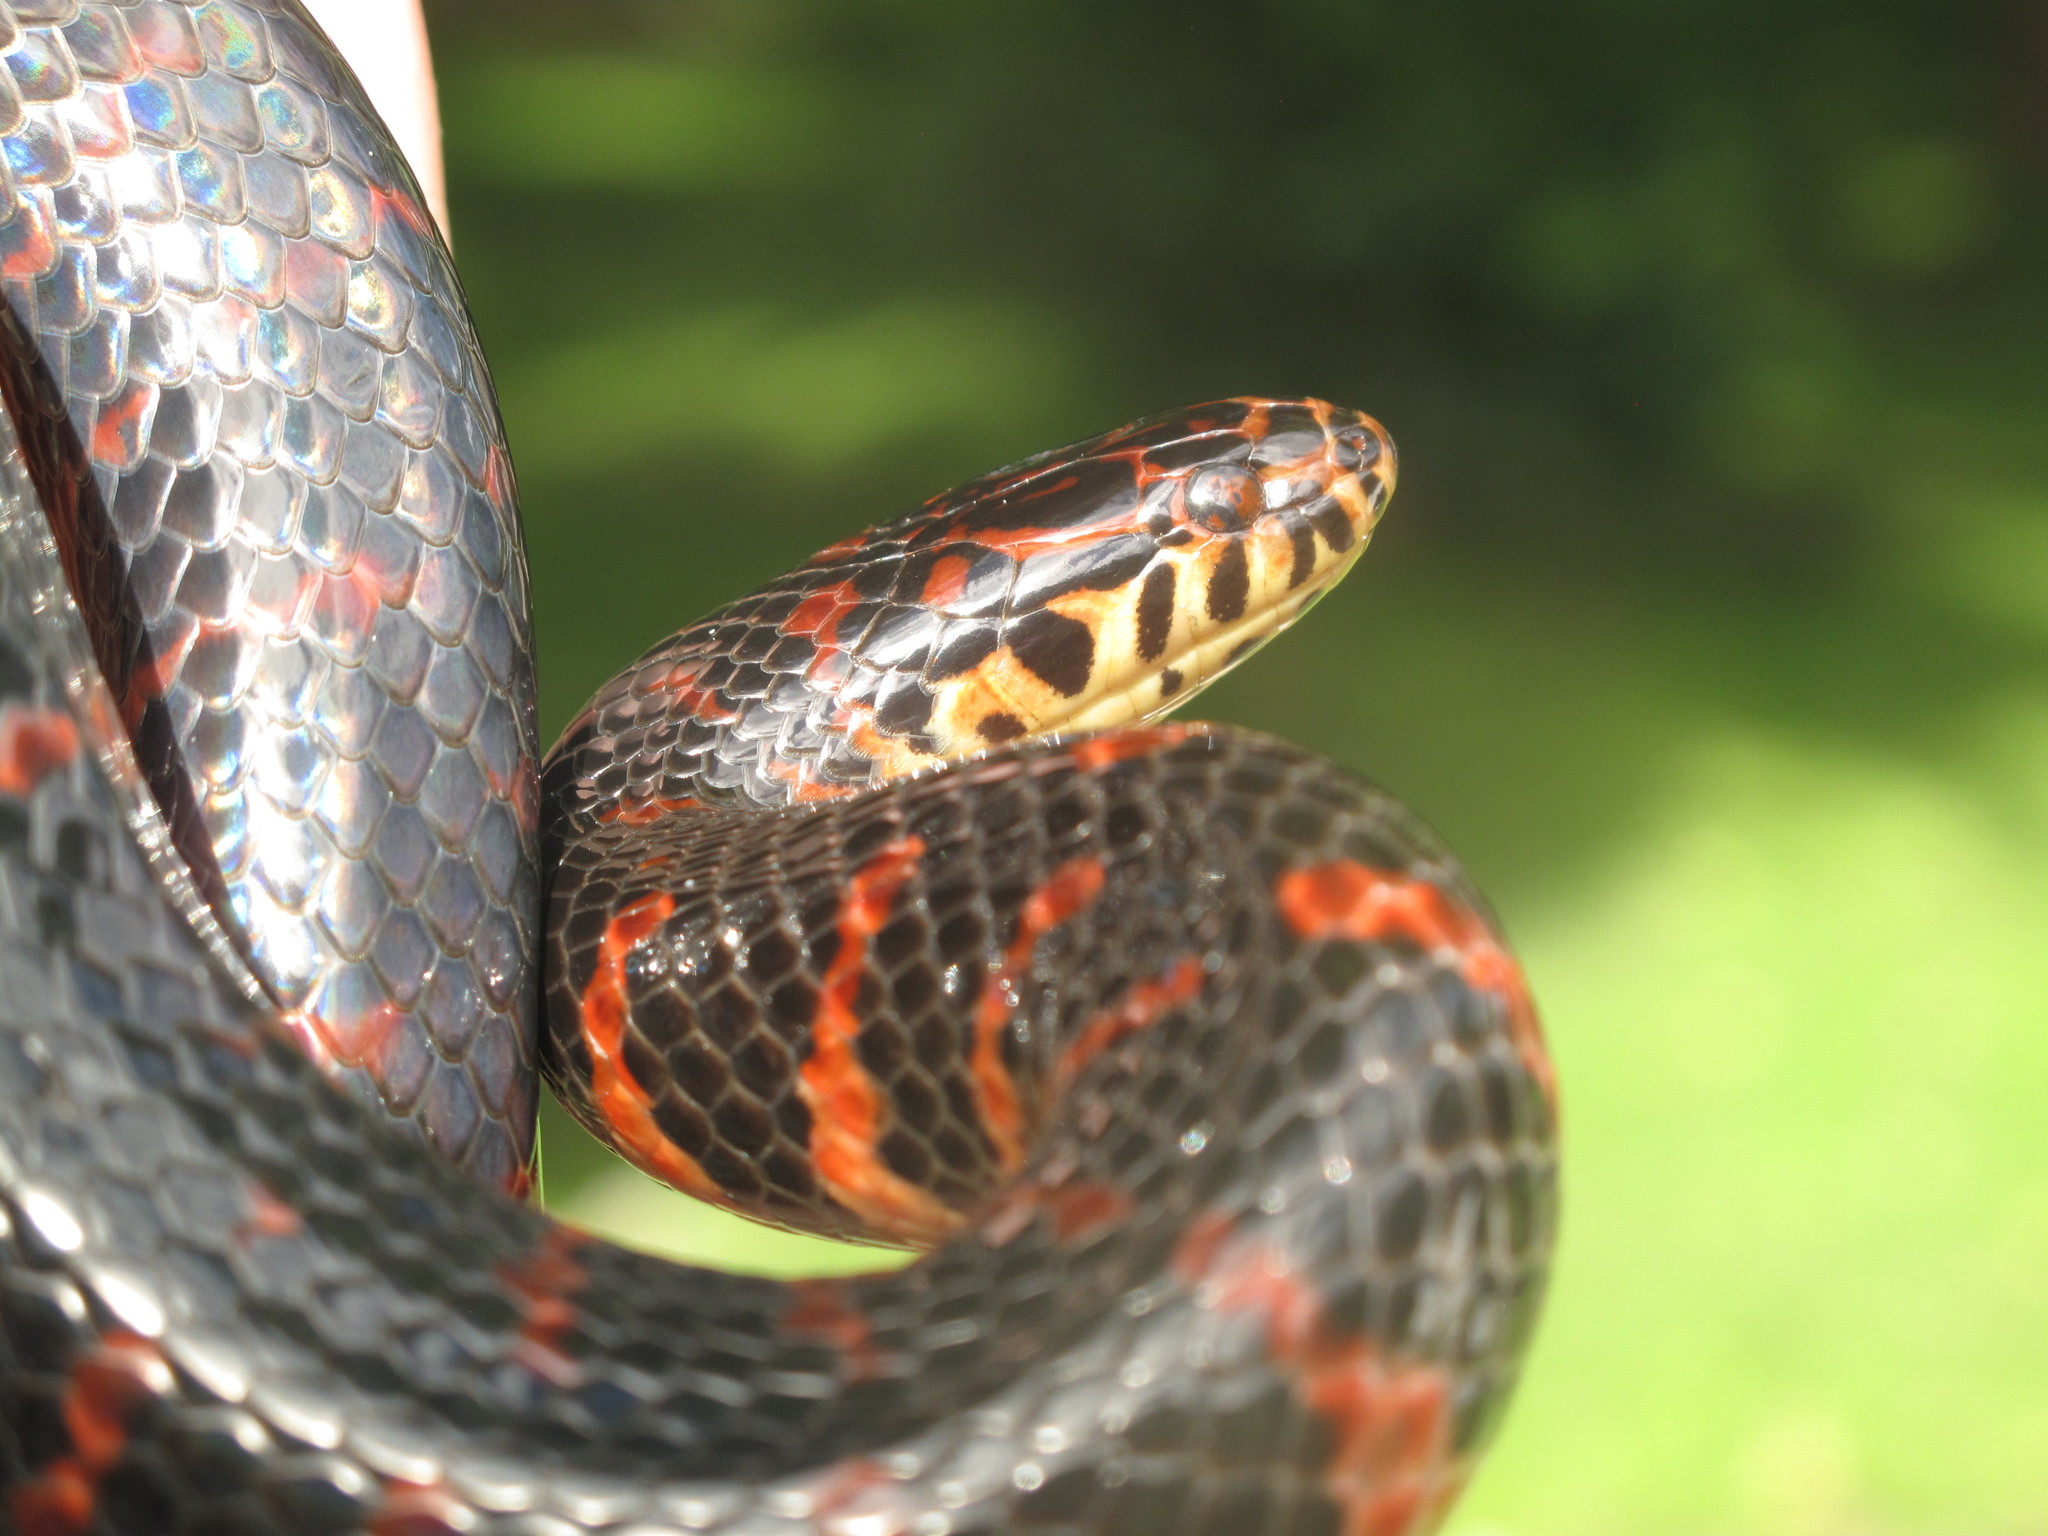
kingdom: Animalia
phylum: Chordata
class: Squamata
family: Colubridae
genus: Farancia
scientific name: Farancia abacura
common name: Mud snake
